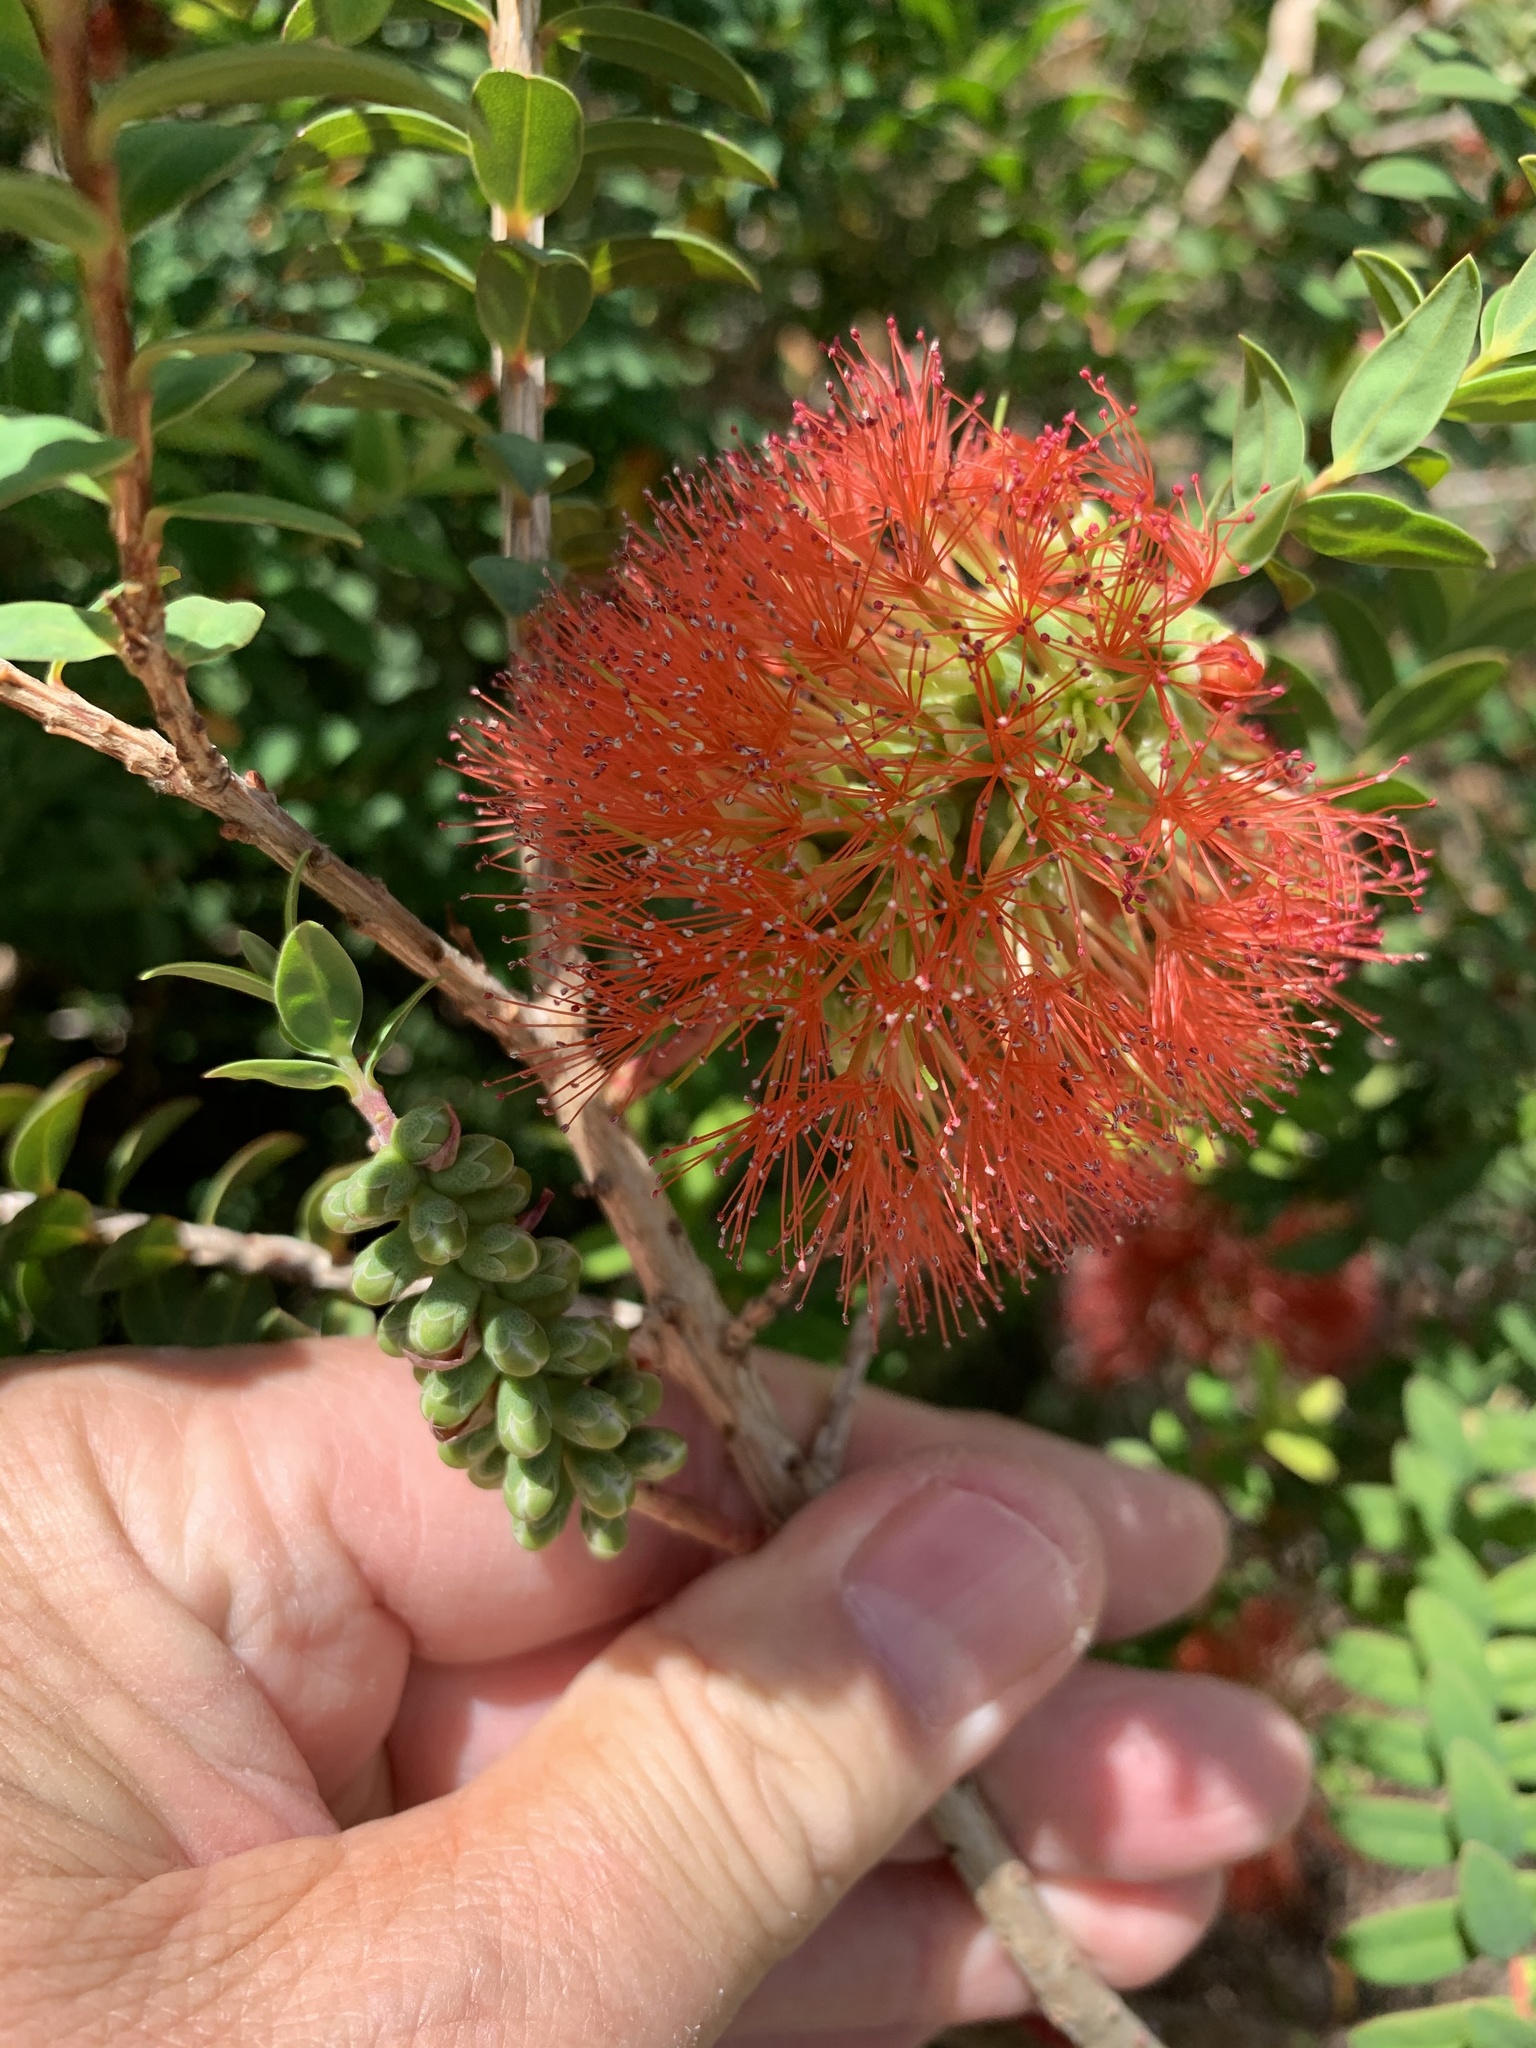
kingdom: Plantae
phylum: Tracheophyta
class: Magnoliopsida
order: Myrtales
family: Myrtaceae
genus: Melaleuca
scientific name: Melaleuca hypericifolia
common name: Red honey myrtle
